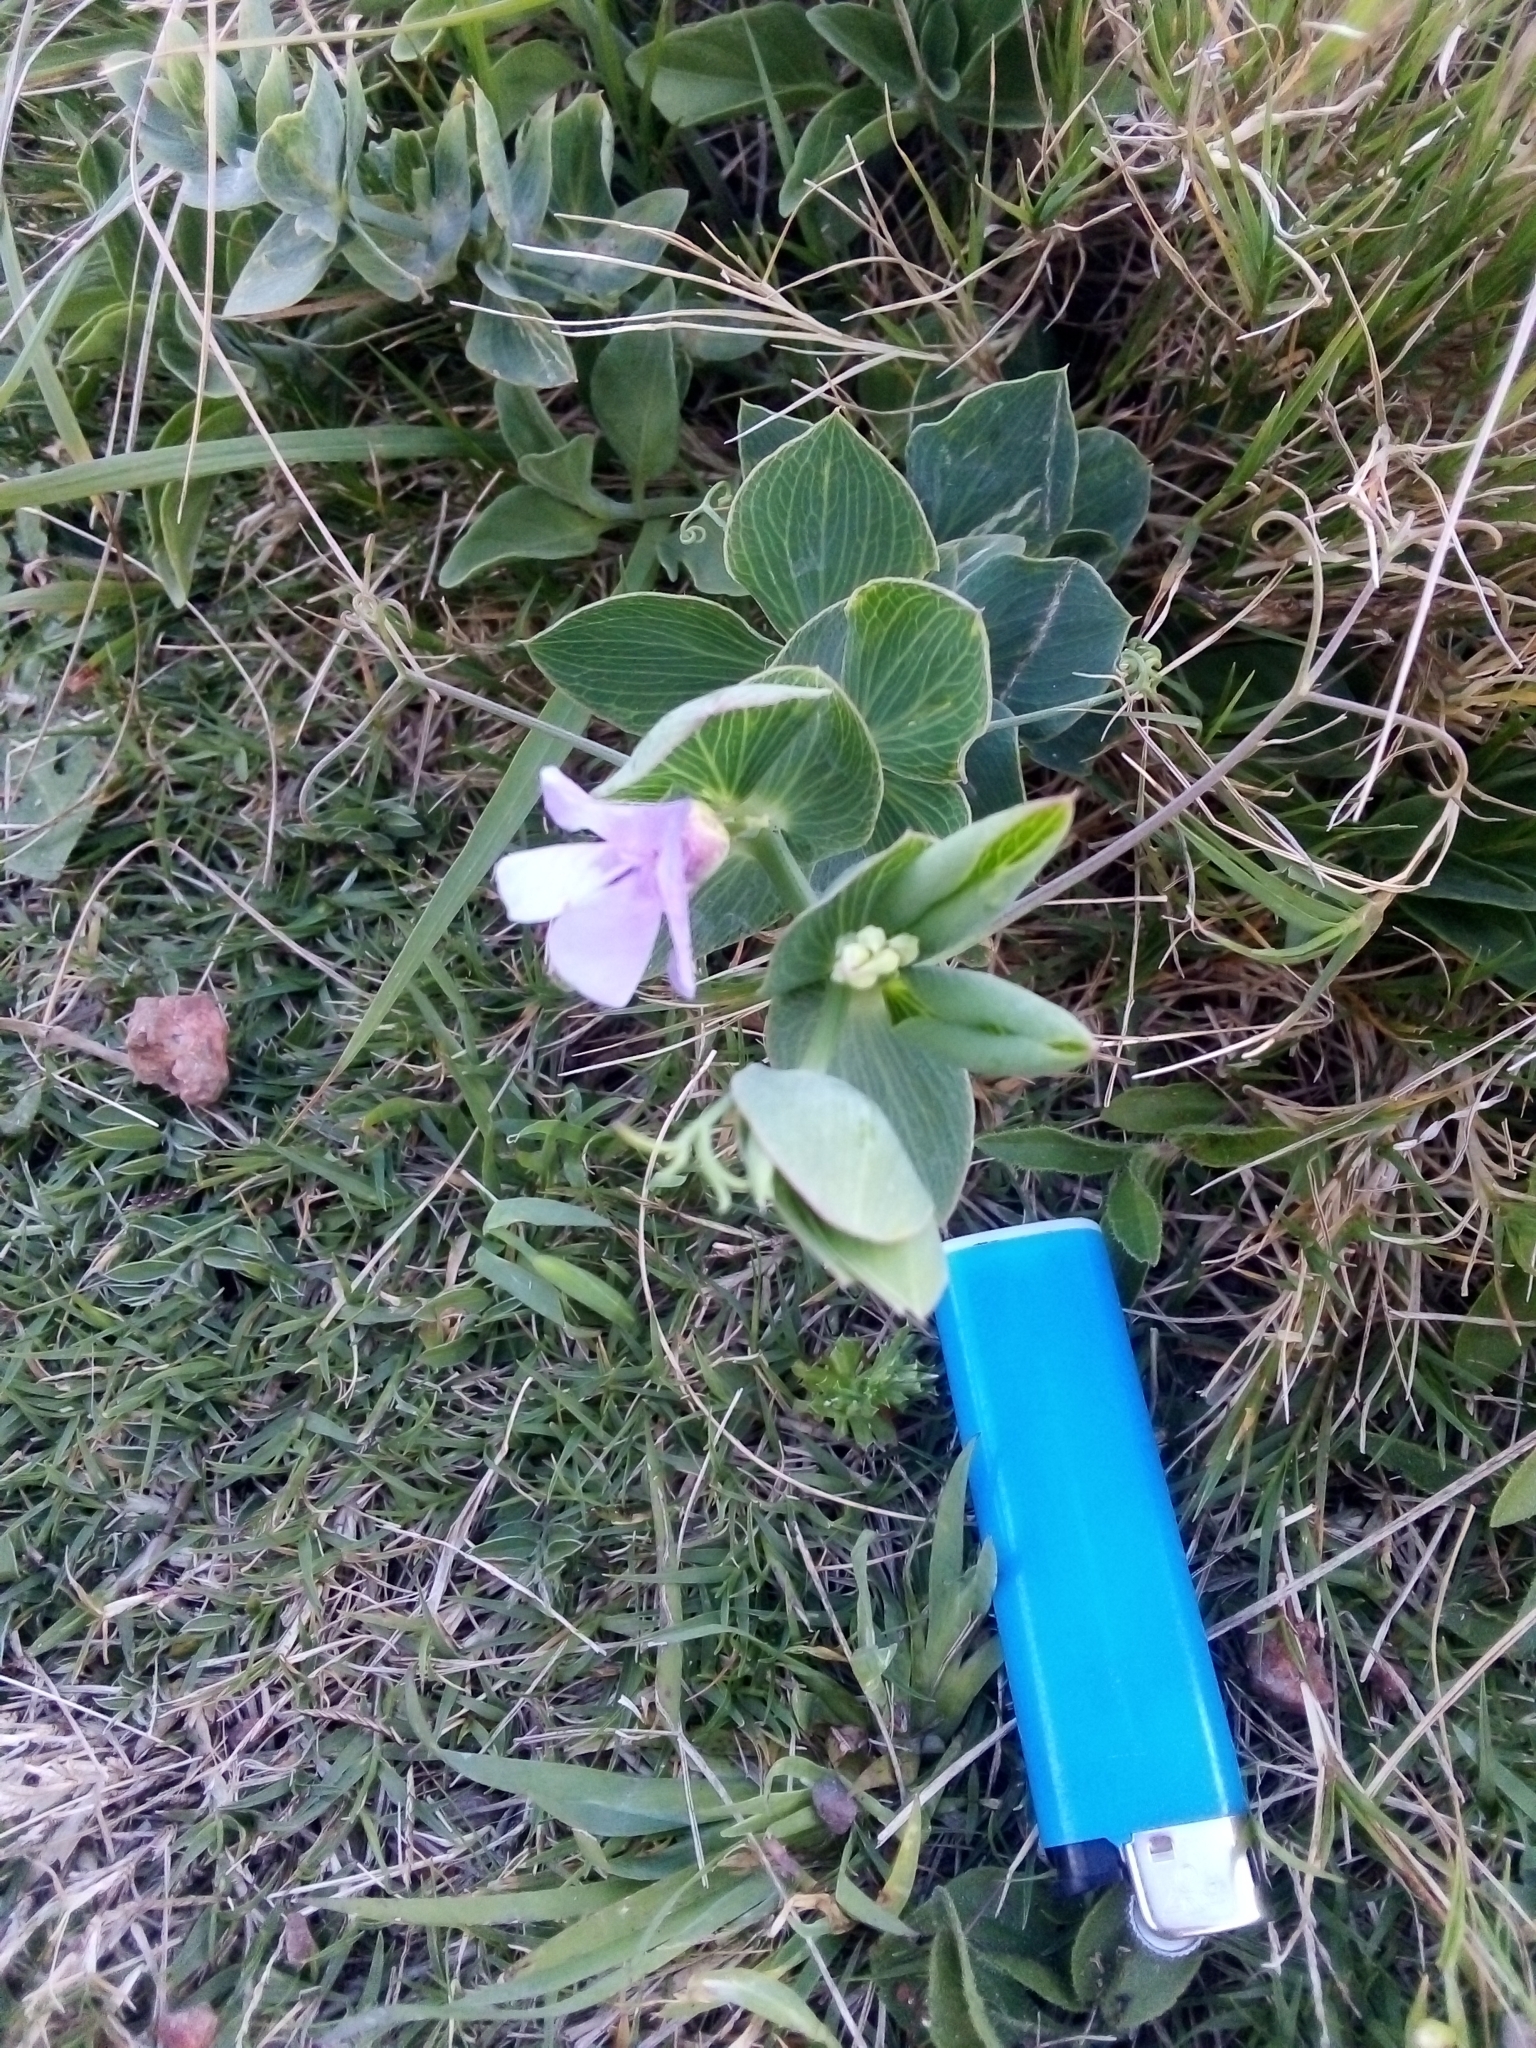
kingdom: Plantae
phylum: Tracheophyta
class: Magnoliopsida
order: Fabales
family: Fabaceae
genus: Lathyrus
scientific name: Lathyrus nervosus
